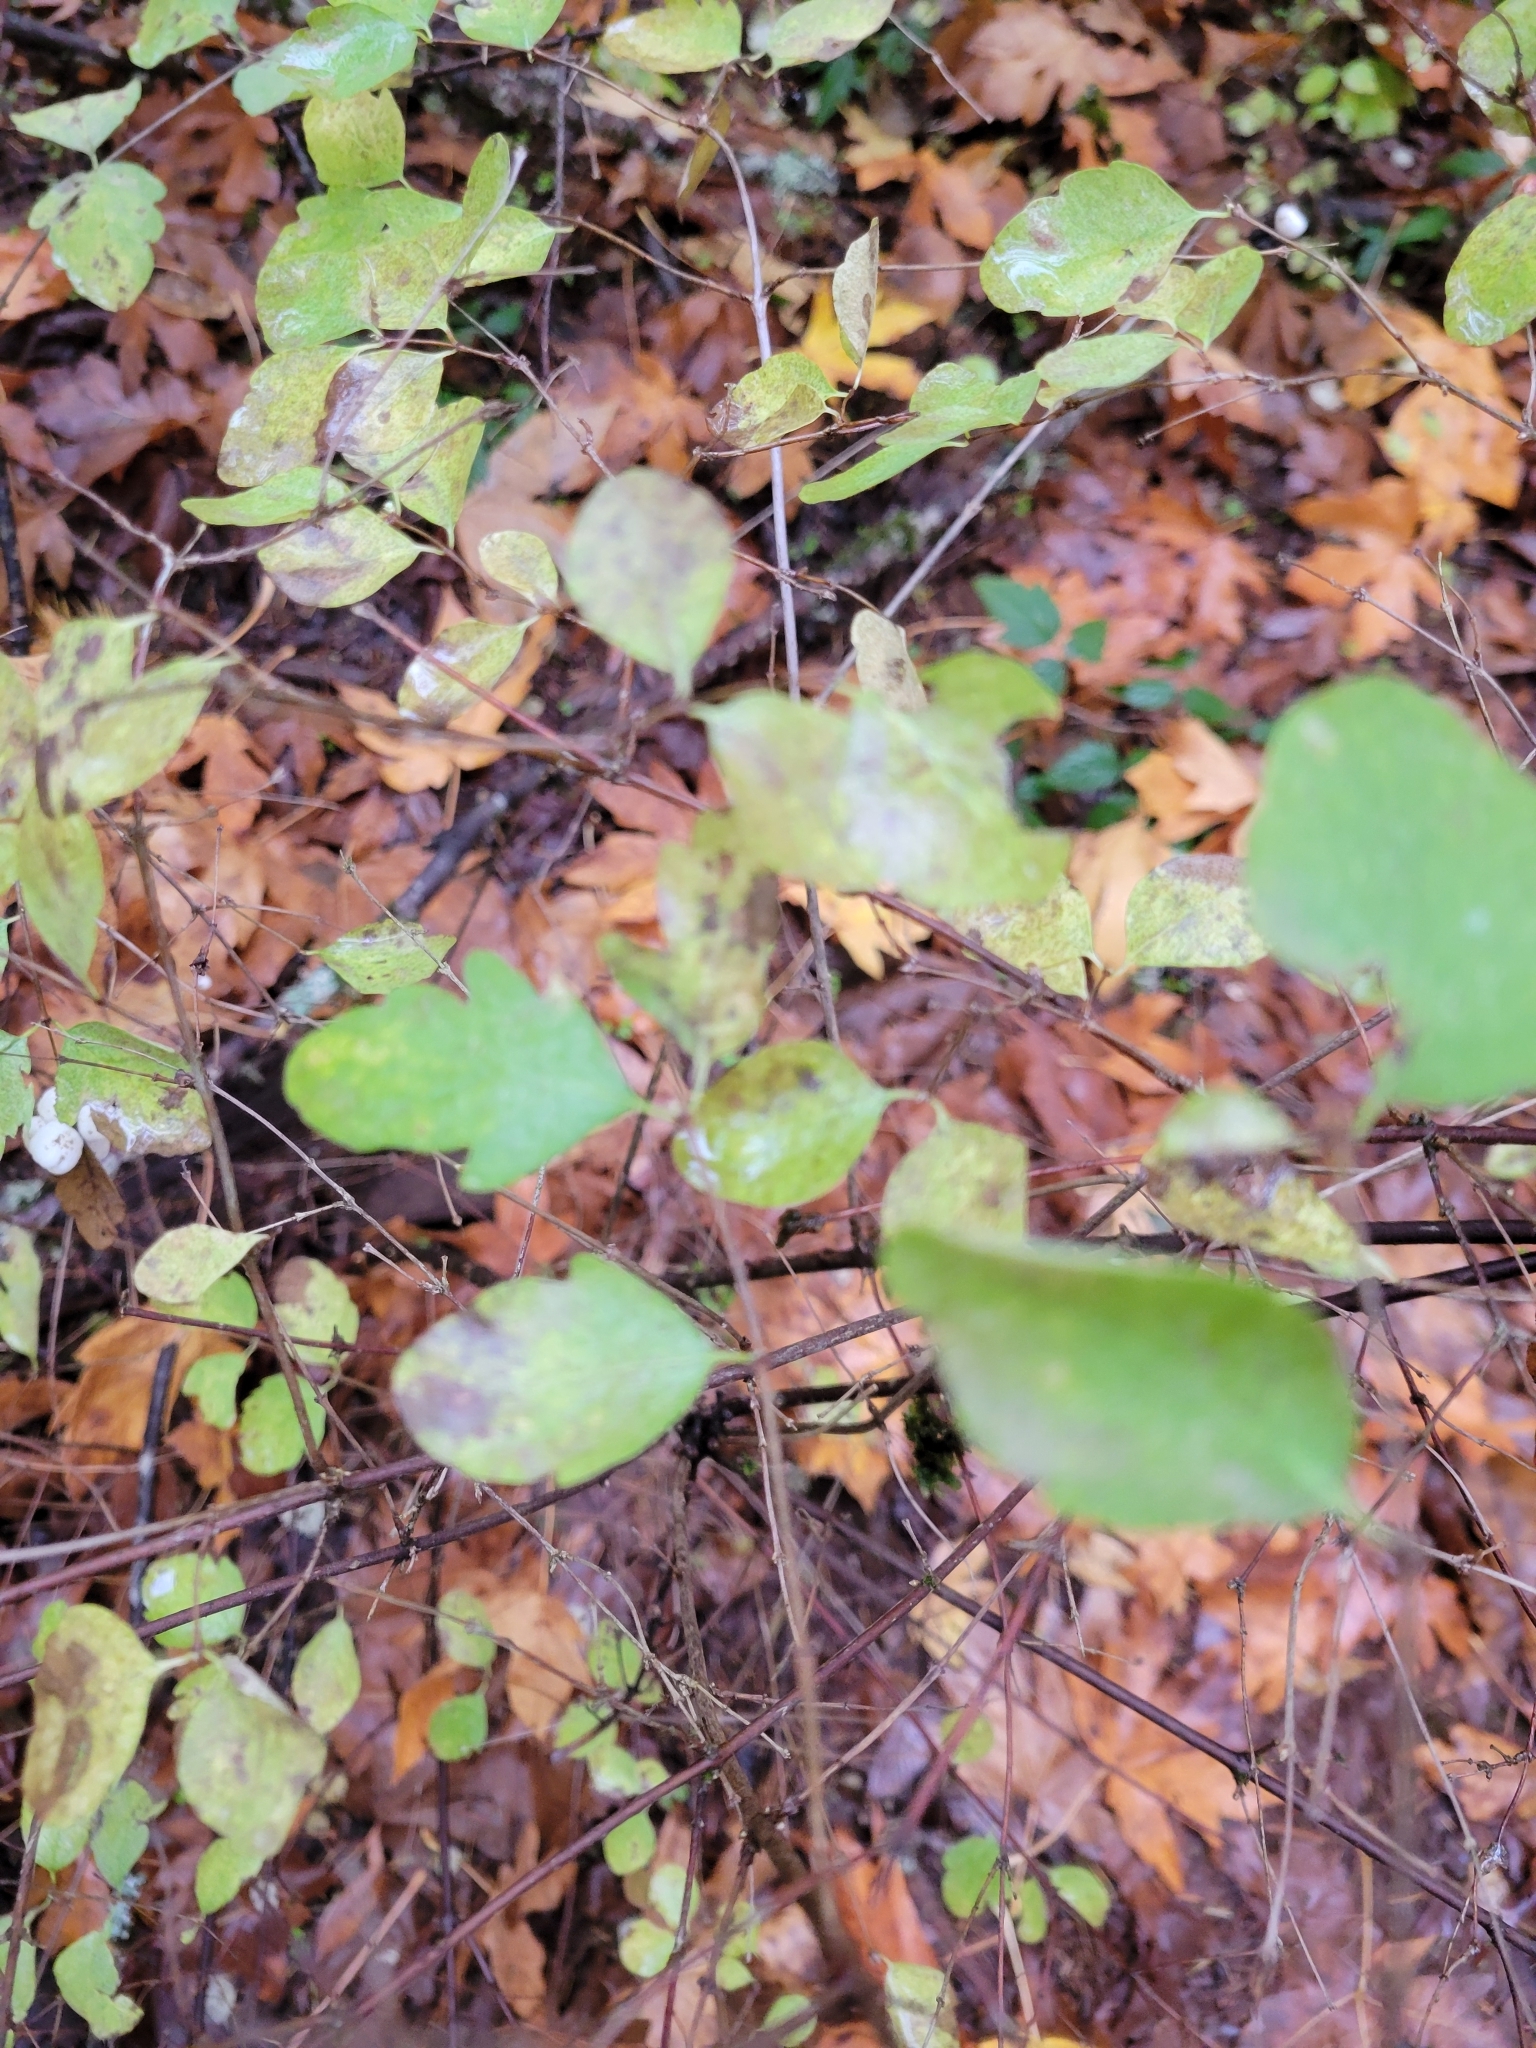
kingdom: Plantae
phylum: Tracheophyta
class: Magnoliopsida
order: Dipsacales
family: Caprifoliaceae
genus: Symphoricarpos
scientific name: Symphoricarpos albus
